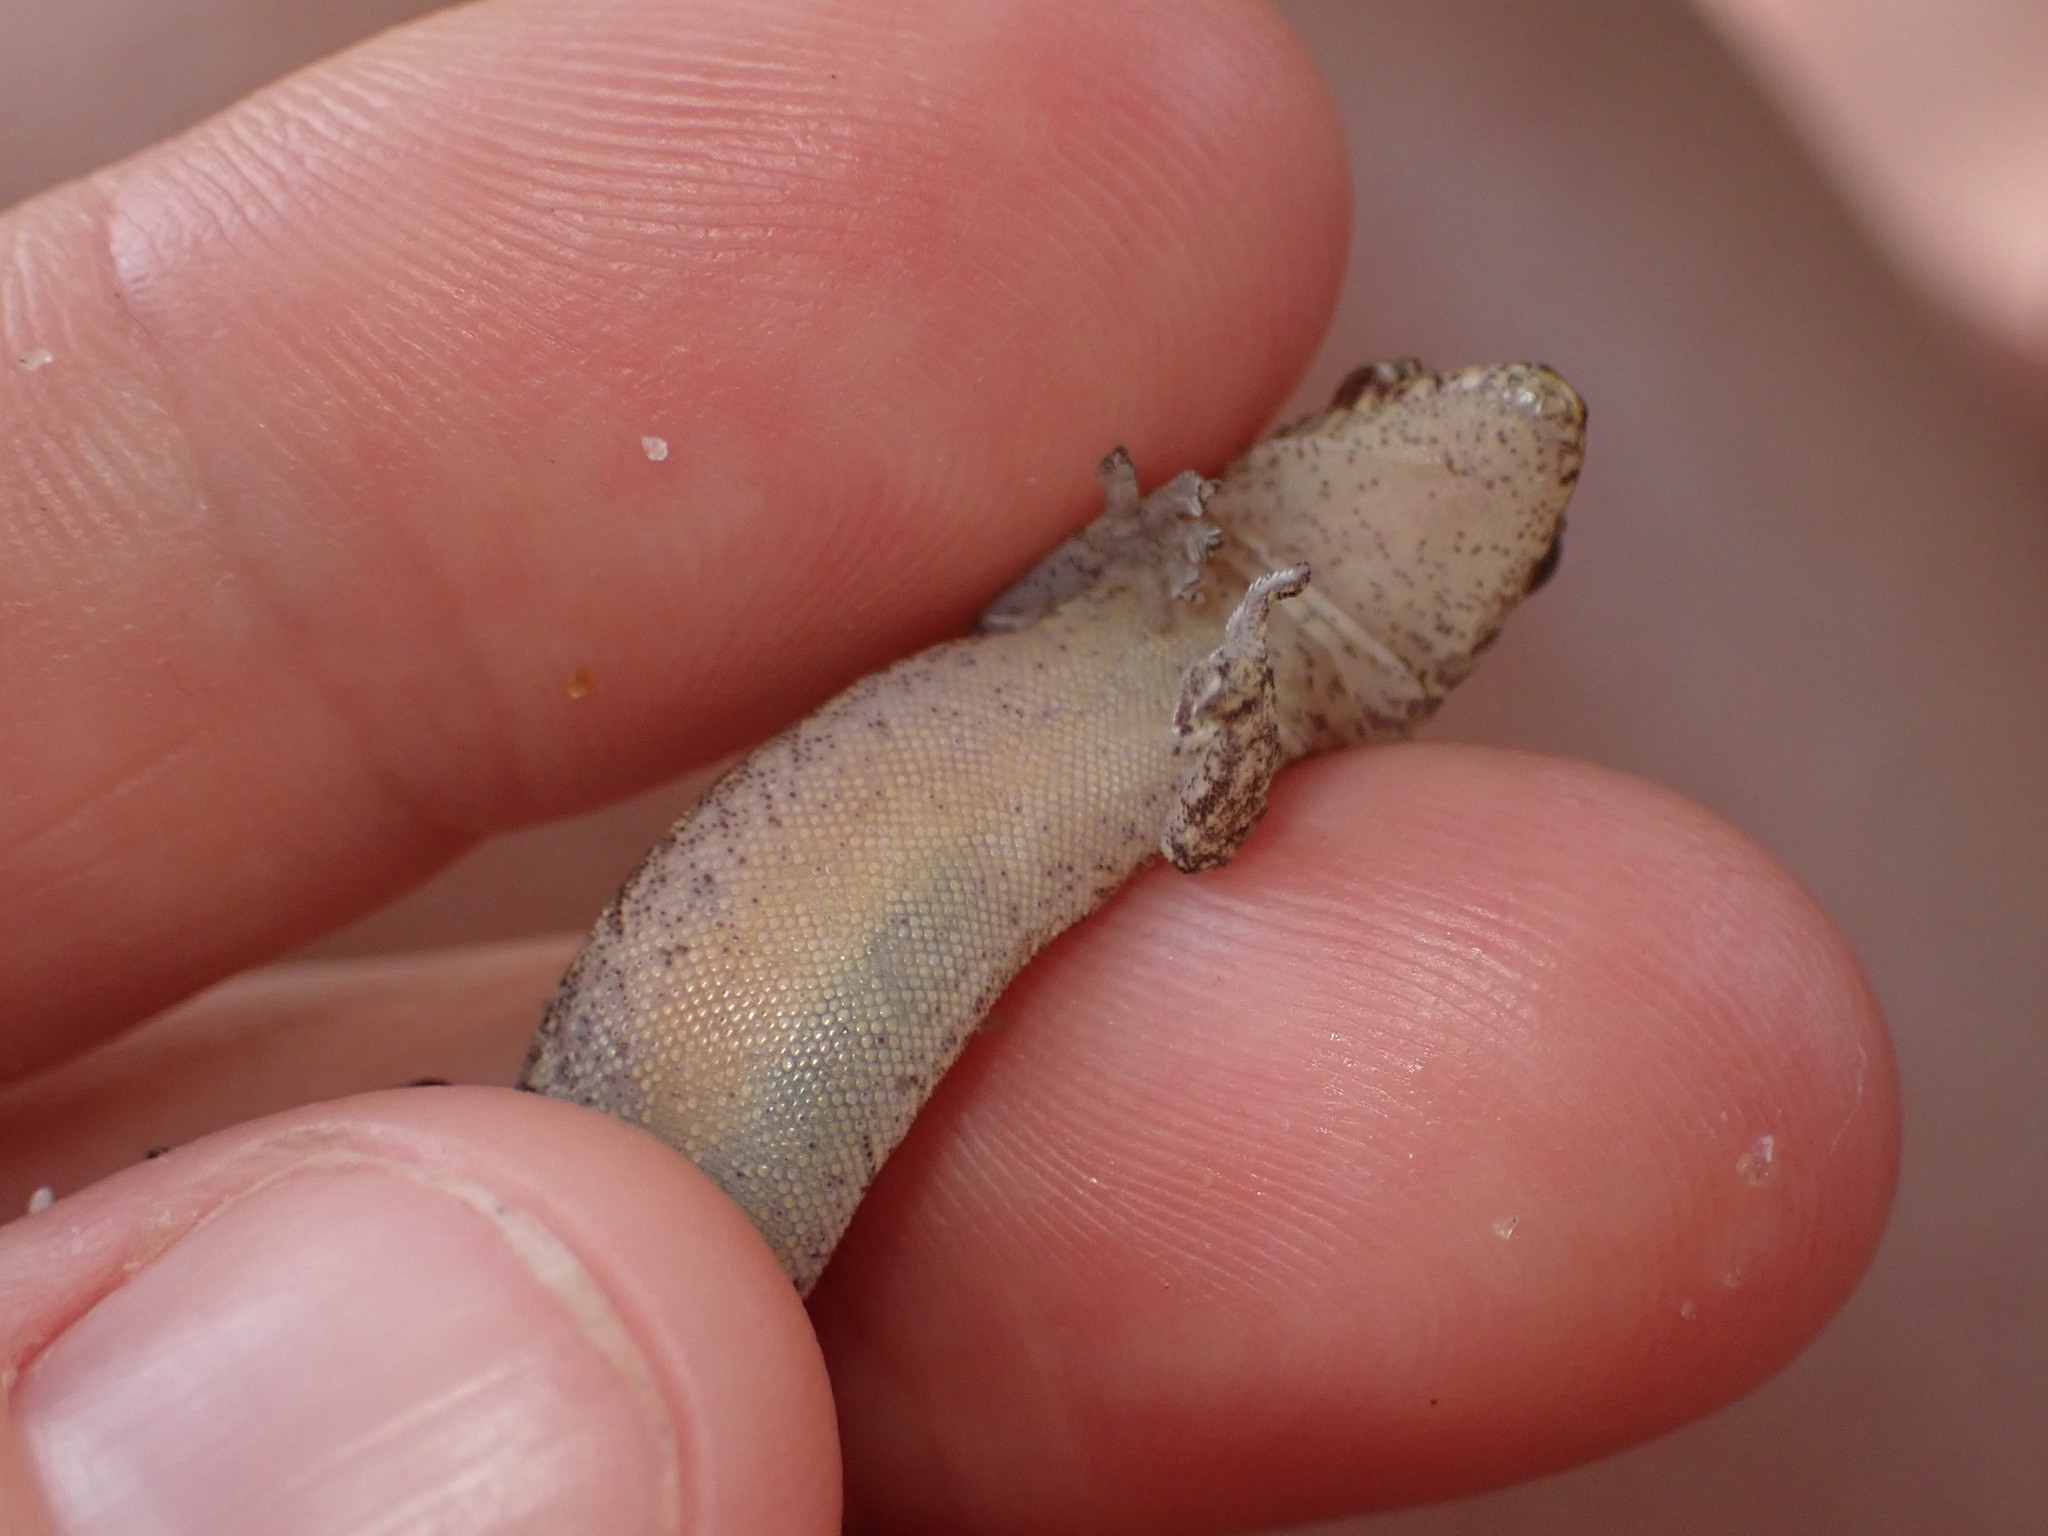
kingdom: Animalia
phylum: Chordata
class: Squamata
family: Gekkonidae
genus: Lepidodactylus
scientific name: Lepidodactylus lugubris
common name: Mourning gecko
